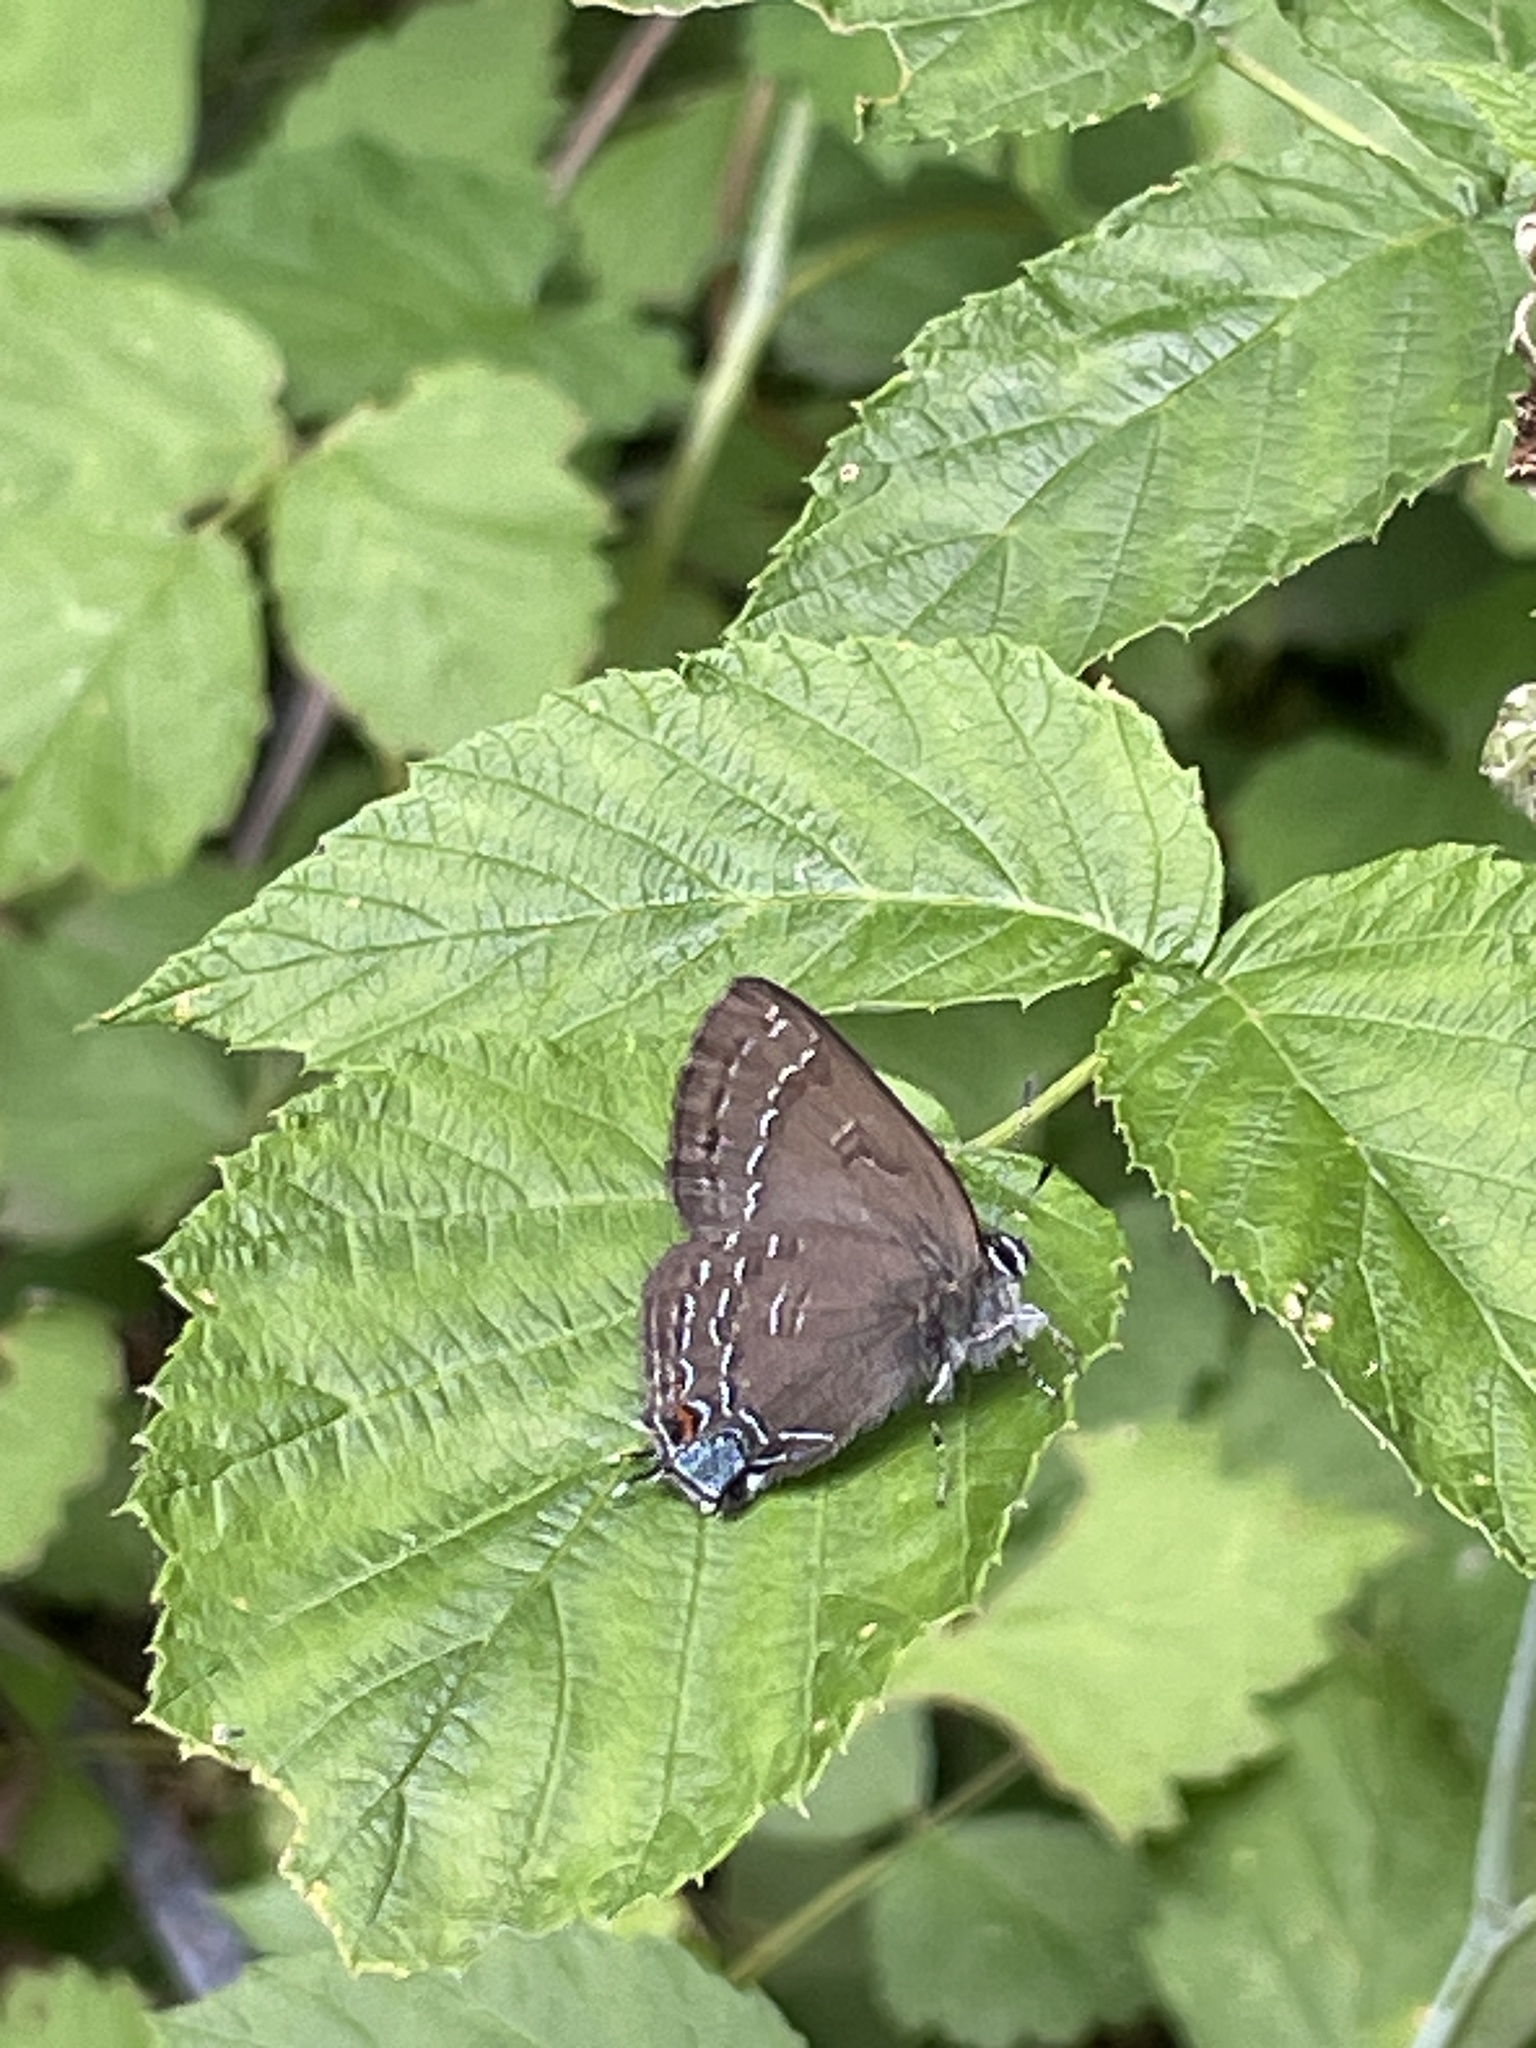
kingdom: Animalia
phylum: Arthropoda
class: Insecta
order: Lepidoptera
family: Lycaenidae
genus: Satyrium
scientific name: Satyrium calanus
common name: Banded hairstreak
